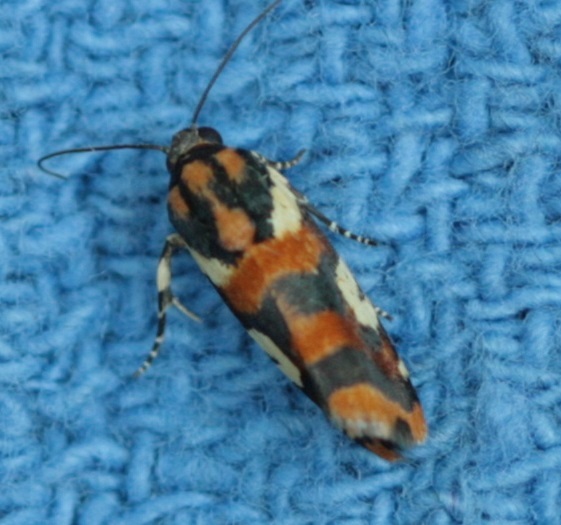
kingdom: Animalia
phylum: Arthropoda
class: Insecta
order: Lepidoptera
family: Noctuidae
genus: Acontia
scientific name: Acontia dama
